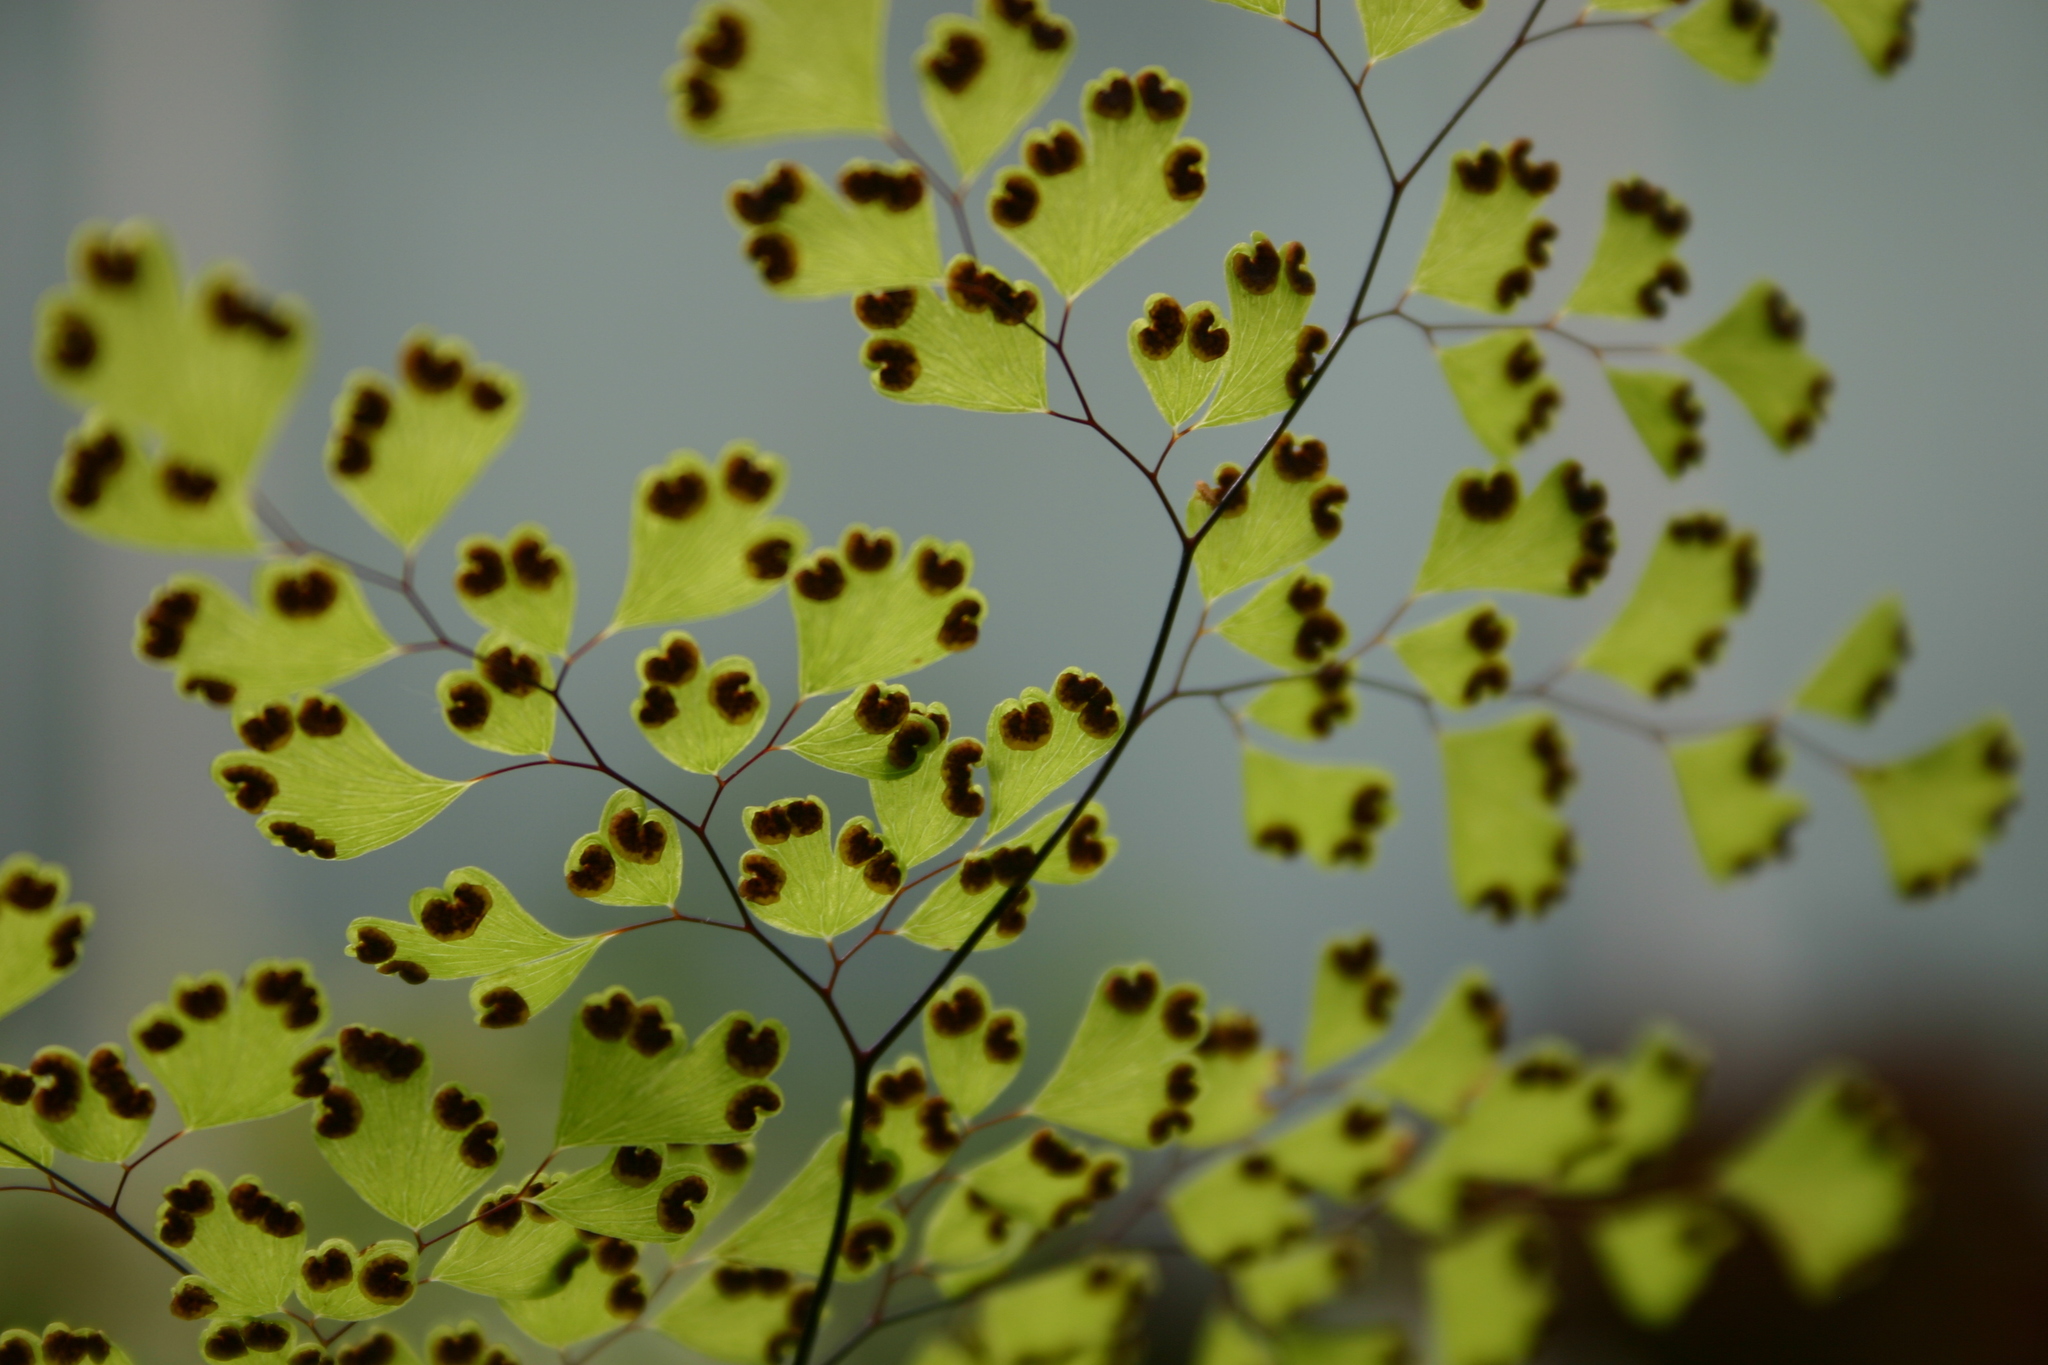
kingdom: Plantae
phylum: Tracheophyta
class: Polypodiopsida
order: Polypodiales
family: Pteridaceae
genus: Adiantum
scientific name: Adiantum raddianum
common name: Delta maidenhair fern
